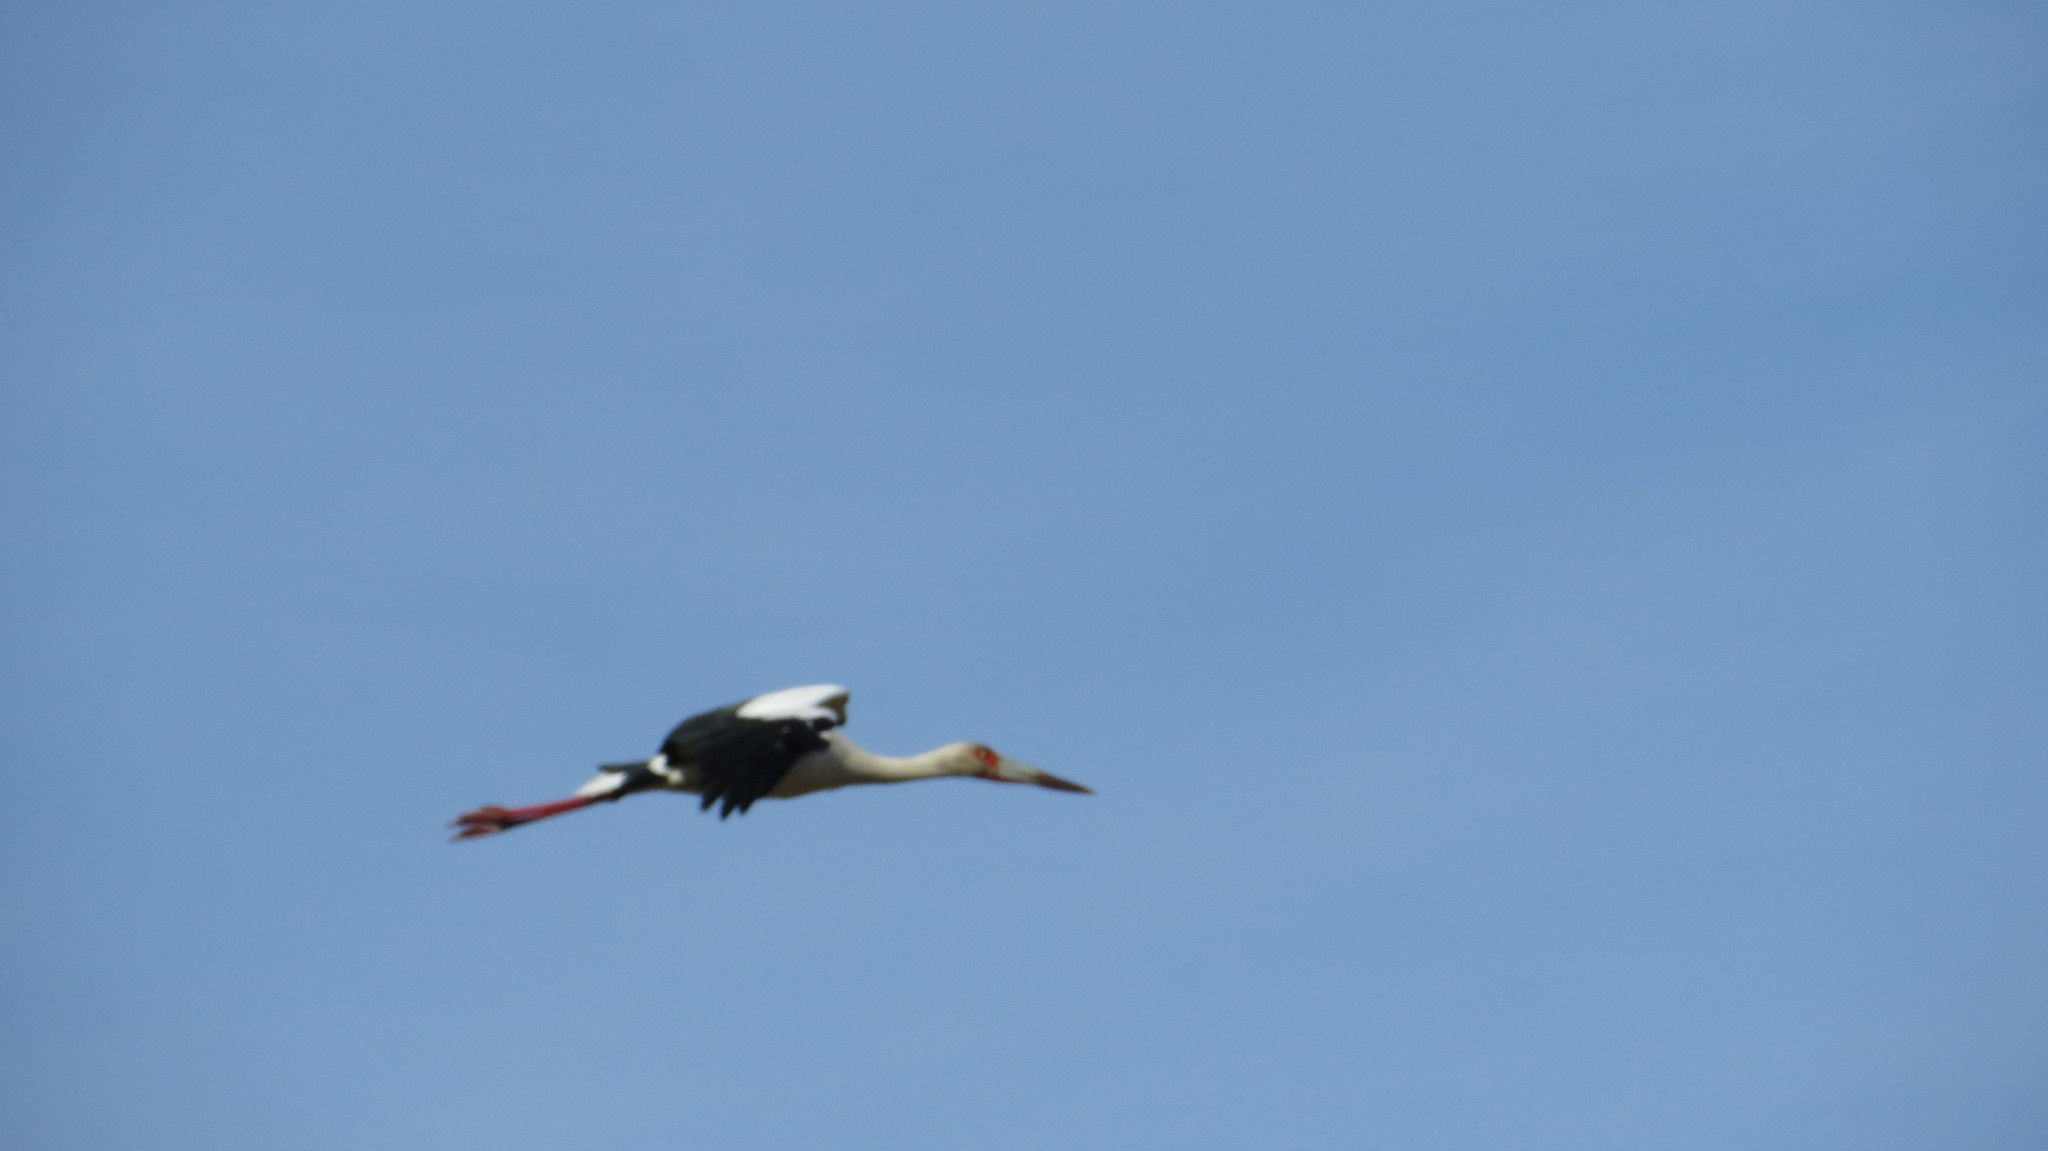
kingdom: Animalia
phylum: Chordata
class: Aves
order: Ciconiiformes
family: Ciconiidae
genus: Ciconia
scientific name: Ciconia maguari
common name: Maguari stork
